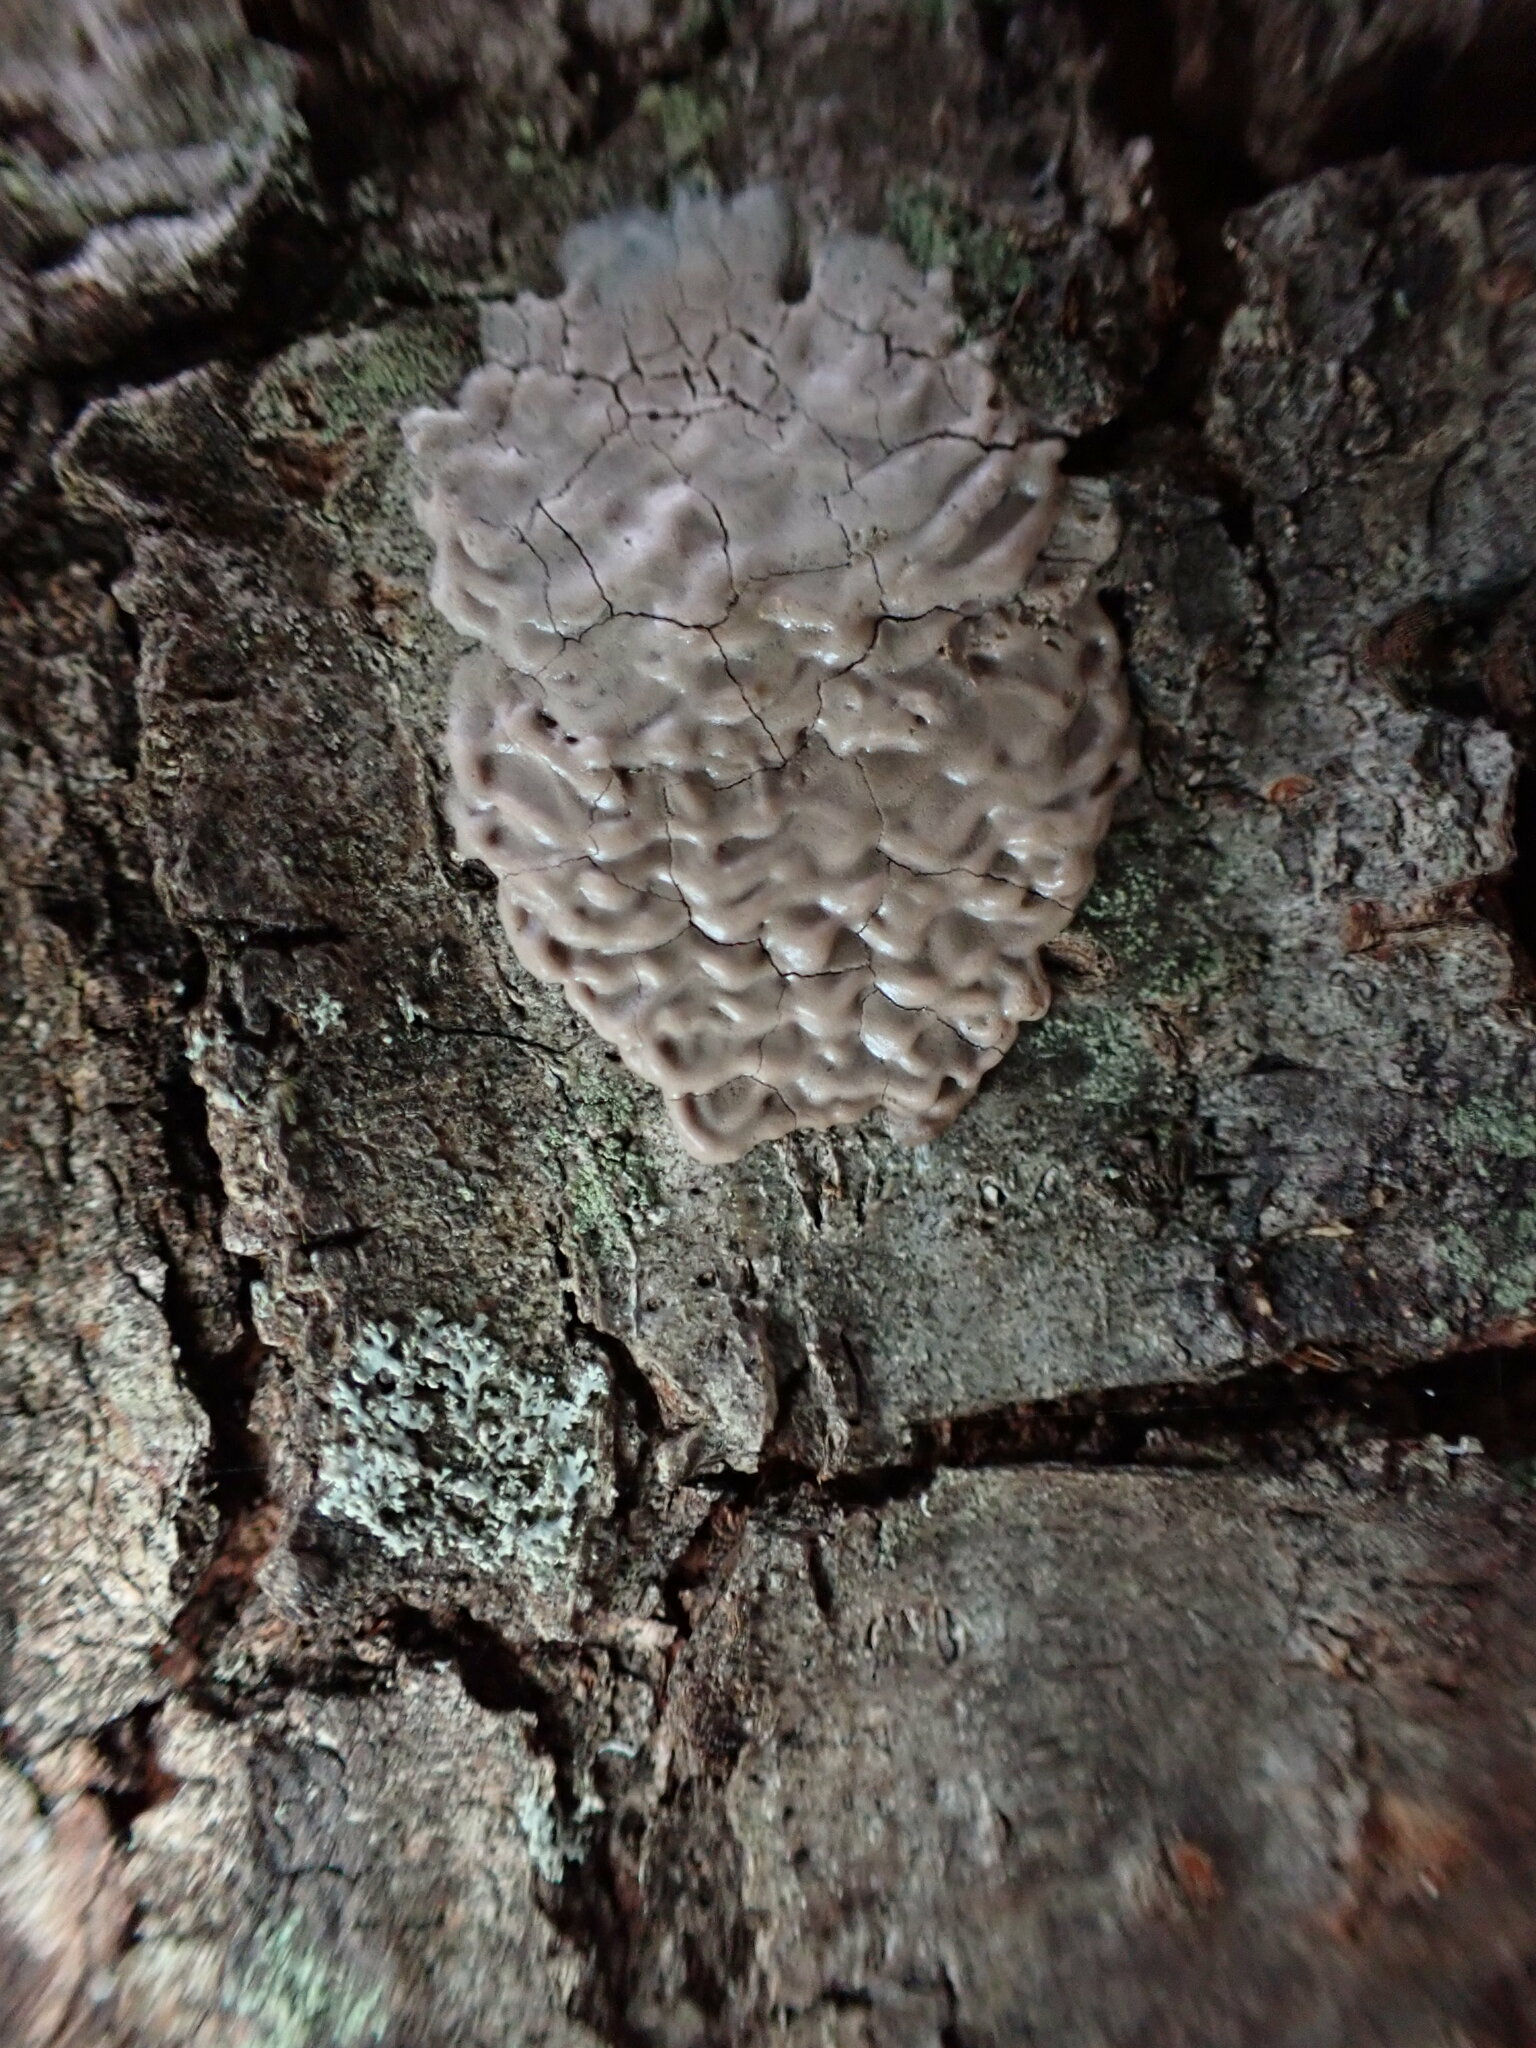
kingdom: Animalia
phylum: Arthropoda
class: Insecta
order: Hemiptera
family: Fulgoridae
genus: Lycorma
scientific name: Lycorma delicatula
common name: Spotted lanternfly
